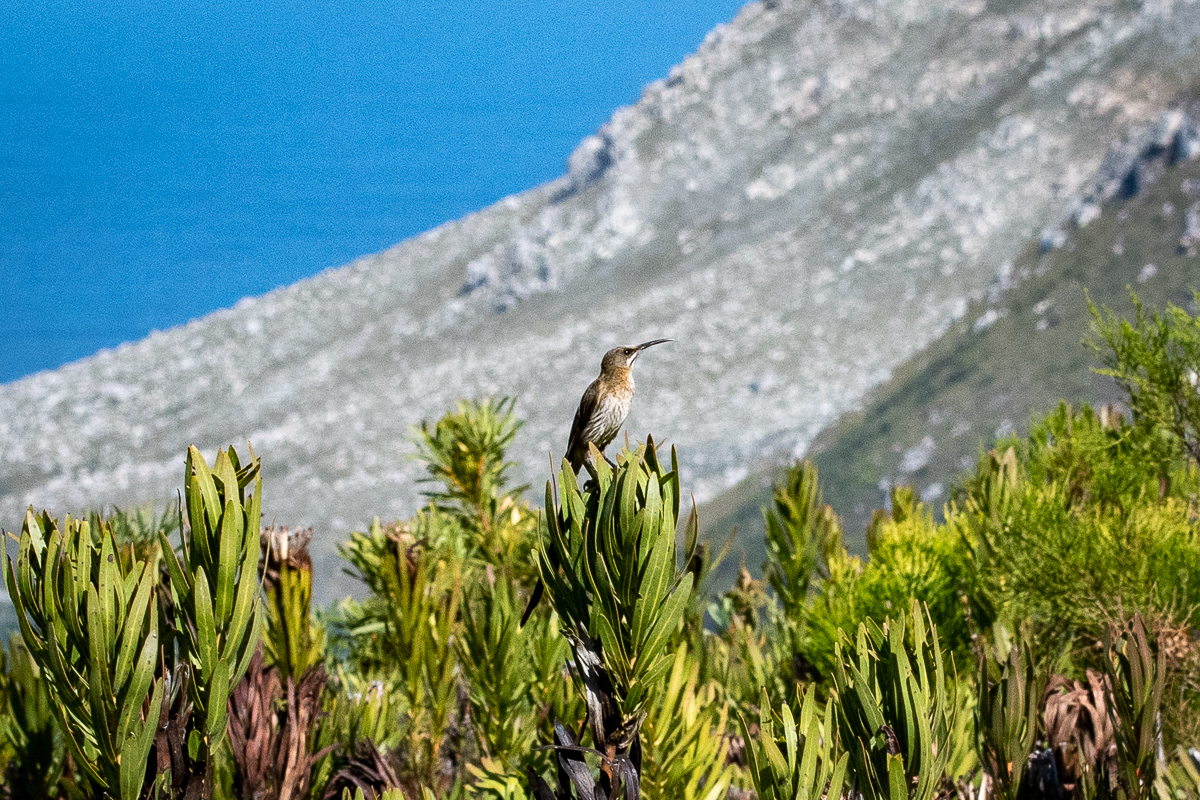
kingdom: Animalia
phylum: Chordata
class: Aves
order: Passeriformes
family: Promeropidae
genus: Promerops
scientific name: Promerops cafer
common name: Cape sugarbird
